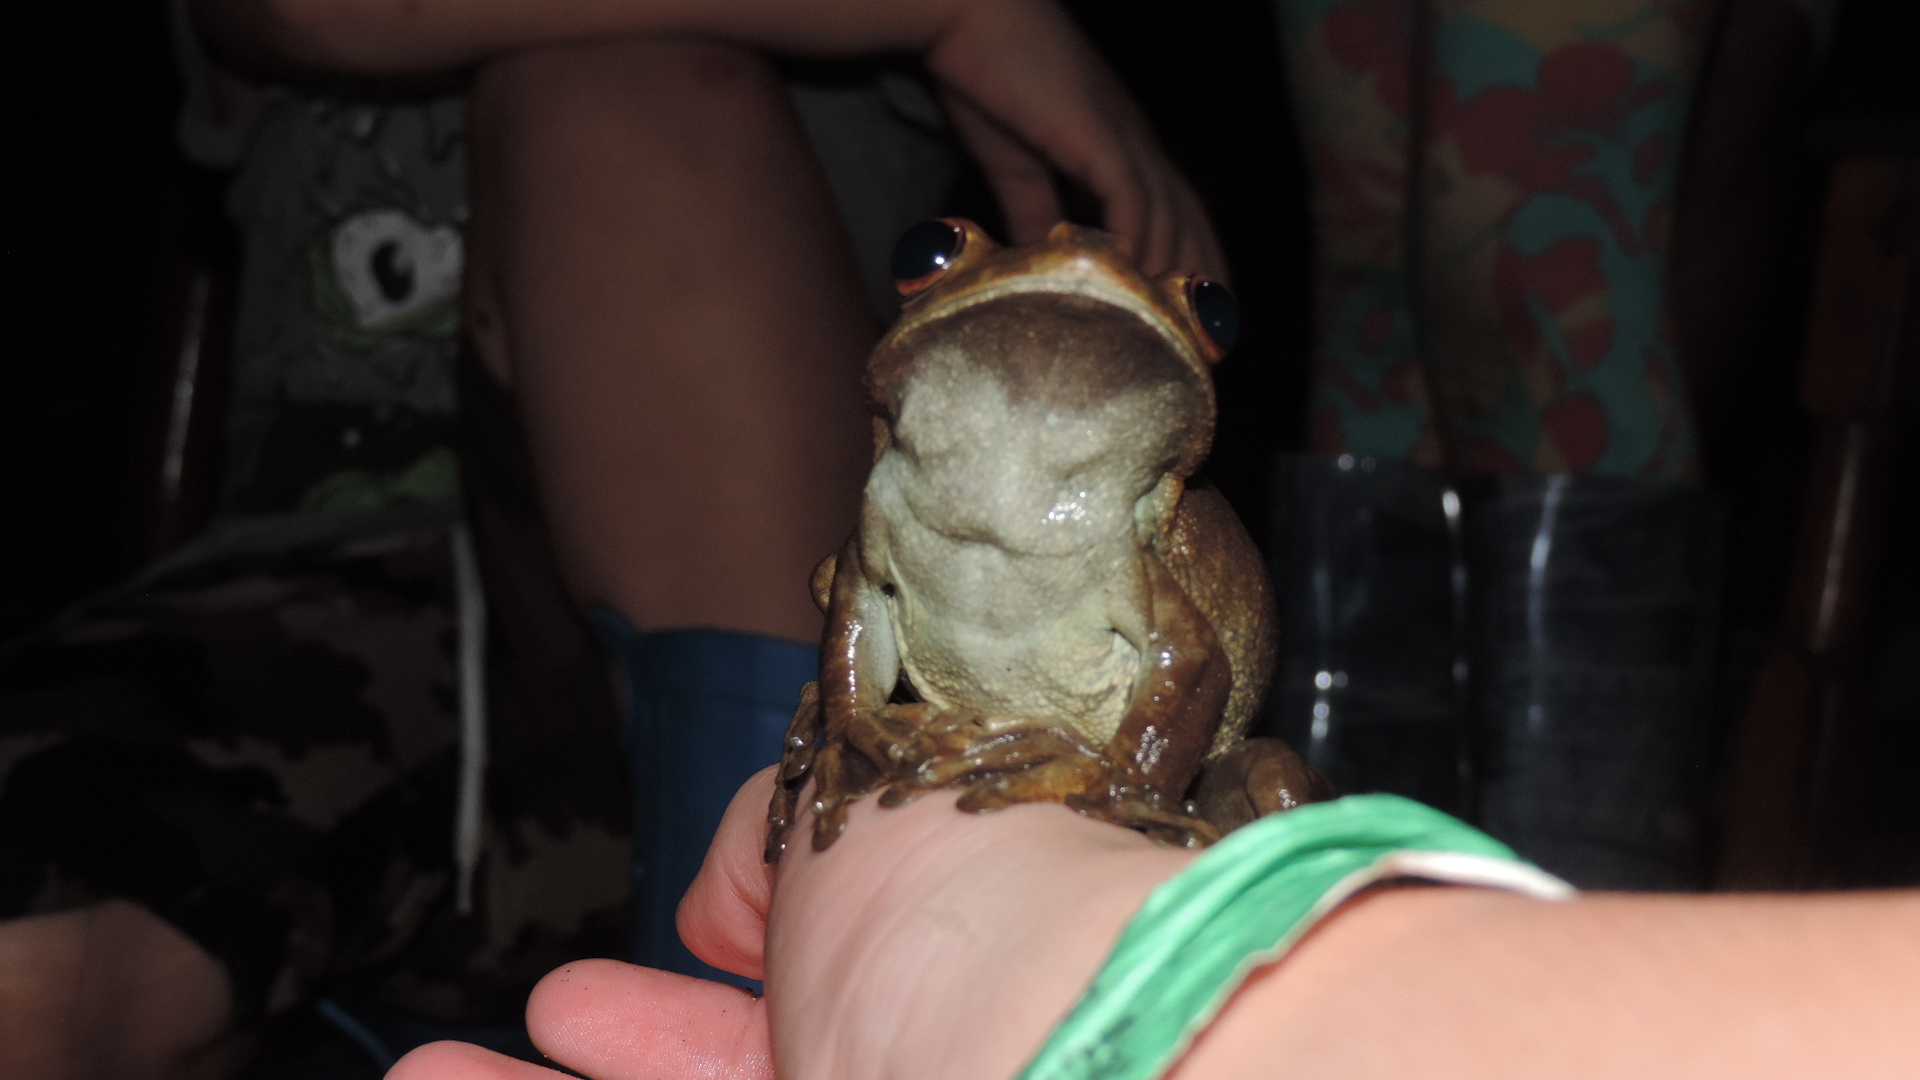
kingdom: Animalia
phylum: Chordata
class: Amphibia
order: Anura
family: Hylidae
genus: Boana
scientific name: Boana boans
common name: Giant gladiator treefrog
